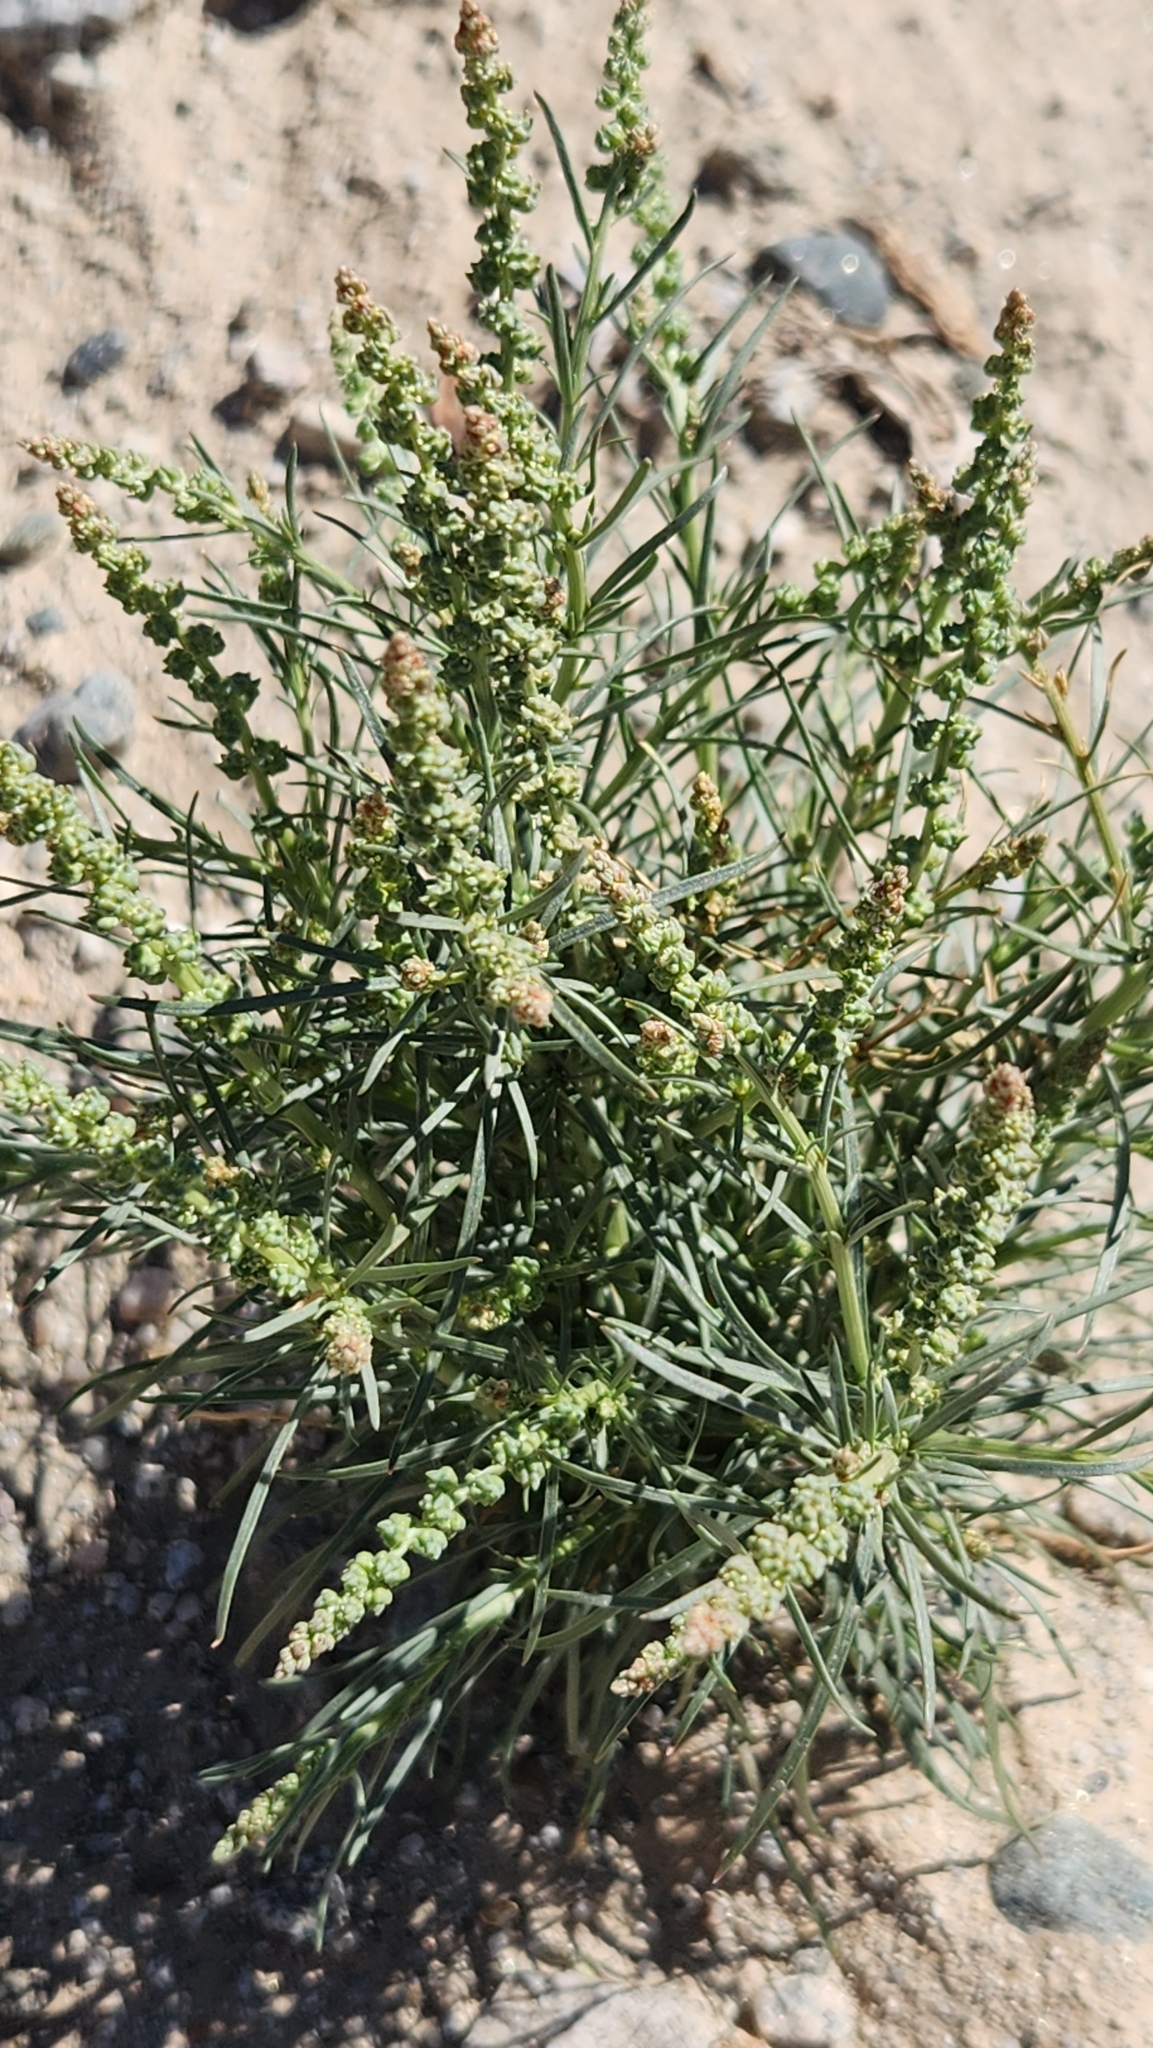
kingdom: Plantae
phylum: Tracheophyta
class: Magnoliopsida
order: Brassicales
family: Resedaceae
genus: Oligomeris
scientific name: Oligomeris linifolia
